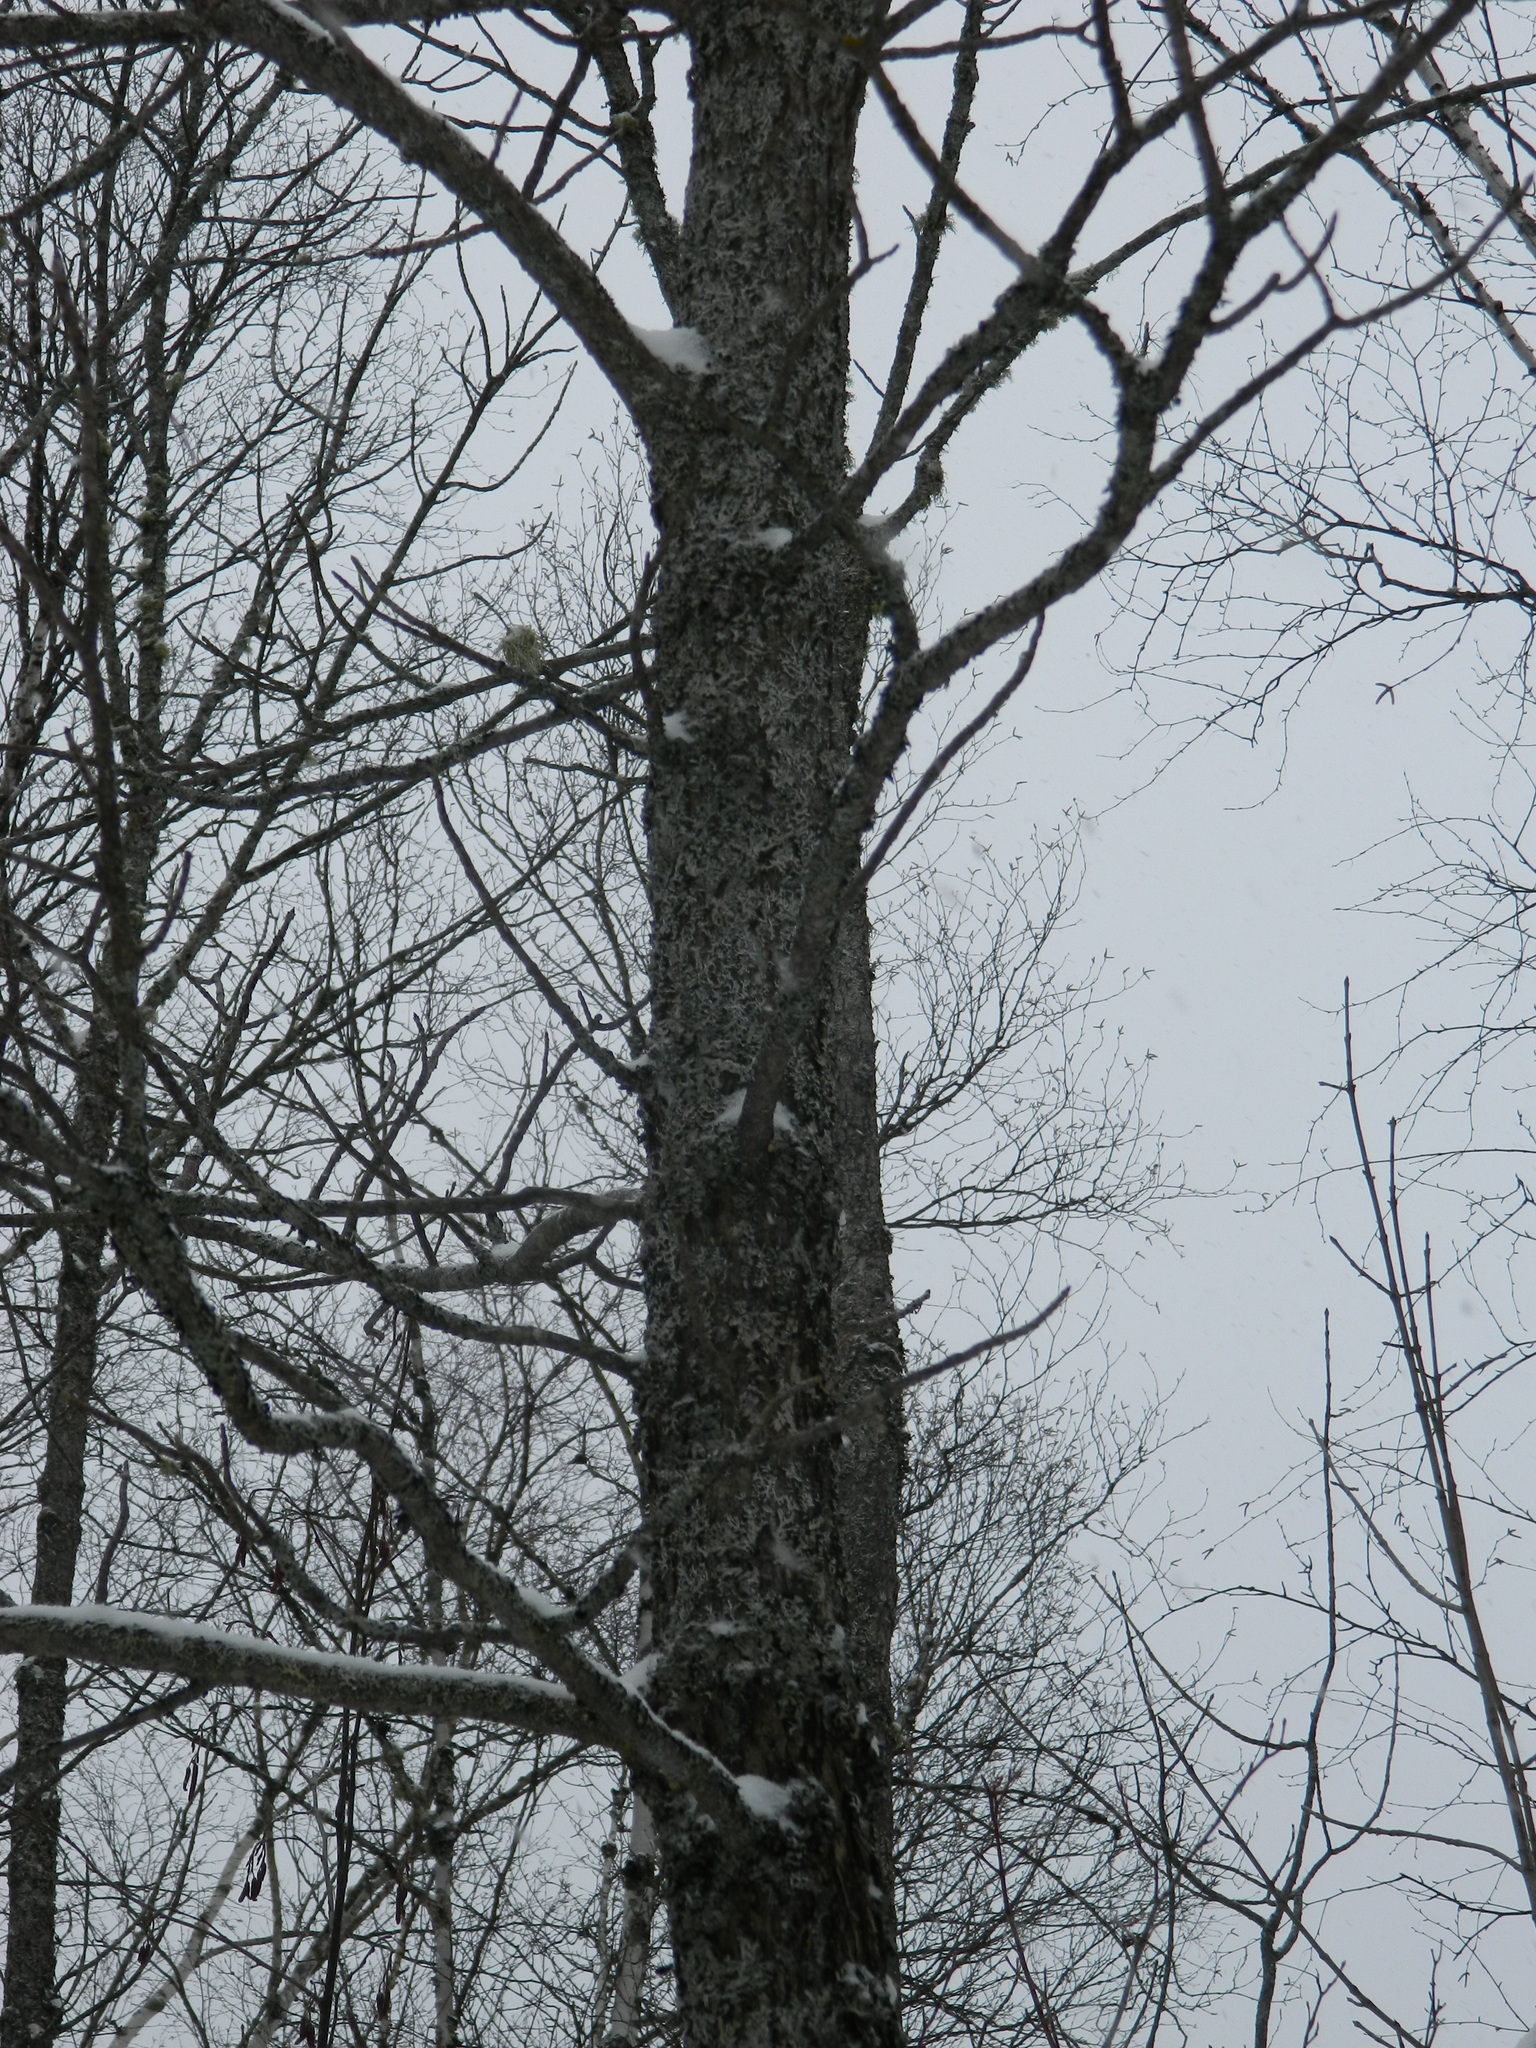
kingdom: Plantae
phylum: Tracheophyta
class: Magnoliopsida
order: Lamiales
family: Oleaceae
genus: Fraxinus
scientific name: Fraxinus nigra
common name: Black ash
